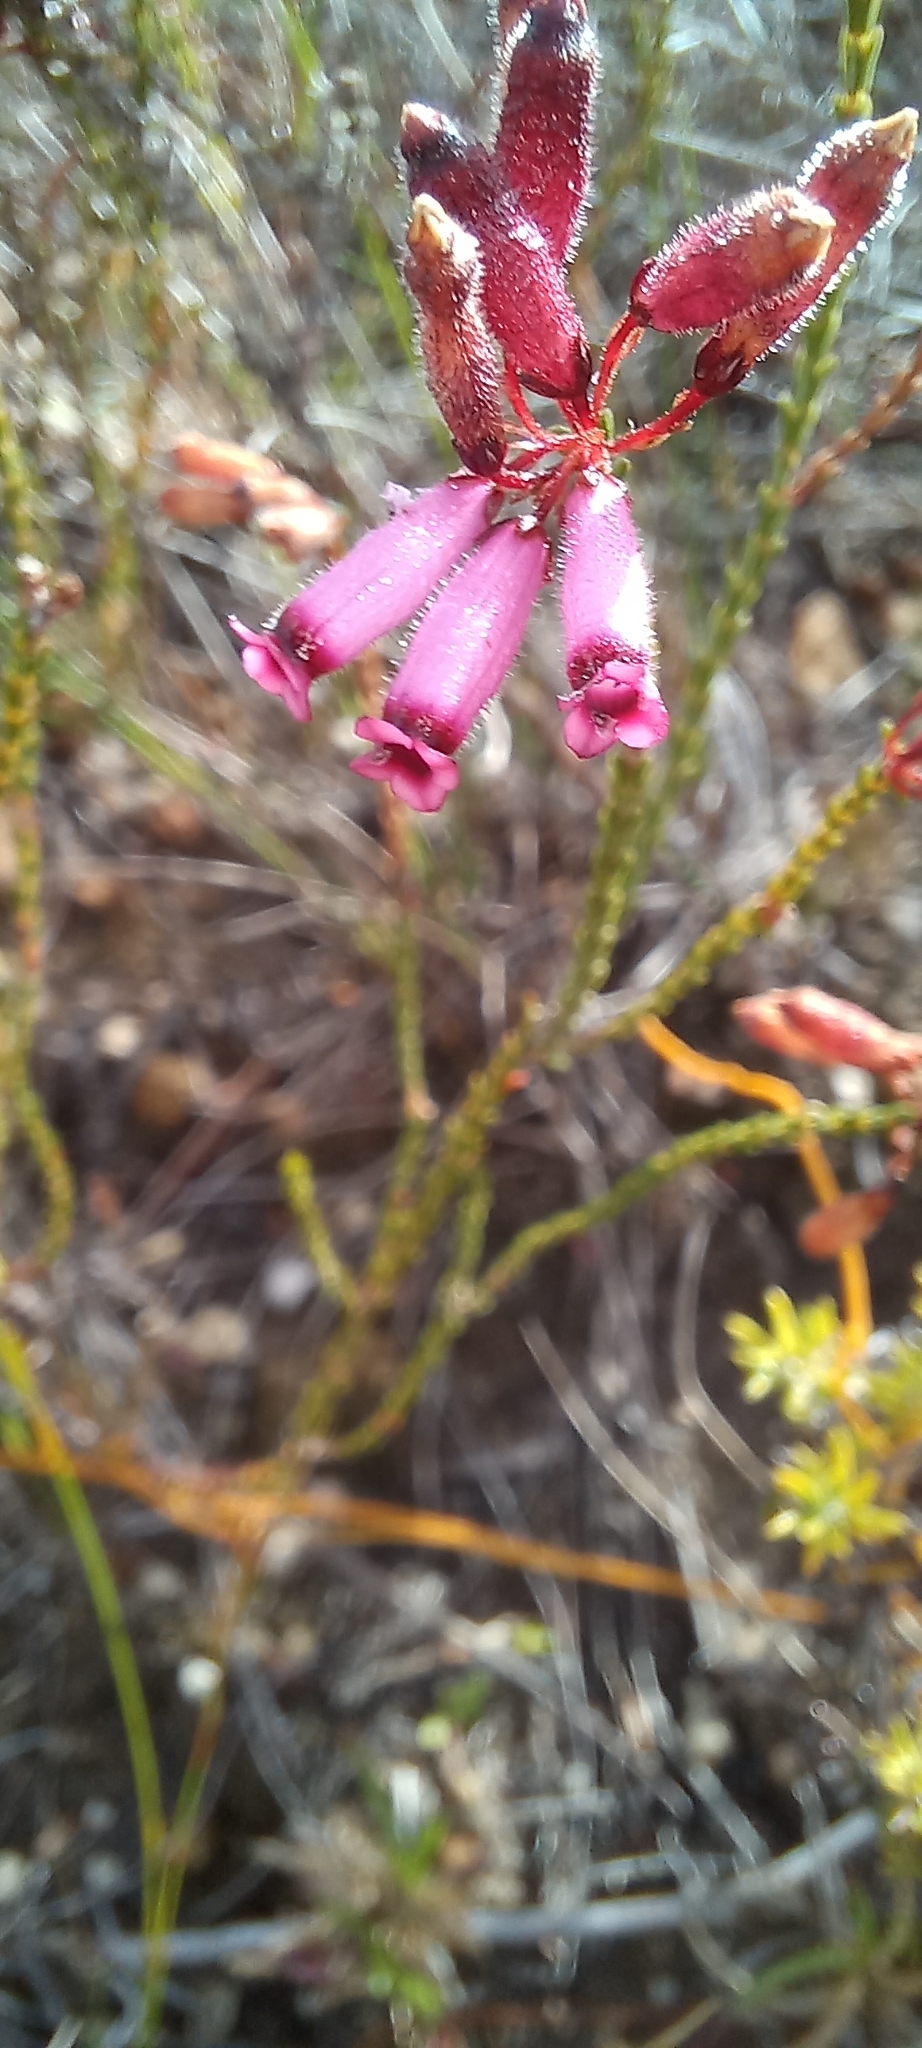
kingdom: Plantae
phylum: Tracheophyta
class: Magnoliopsida
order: Ericales
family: Ericaceae
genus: Erica
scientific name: Erica cristata
